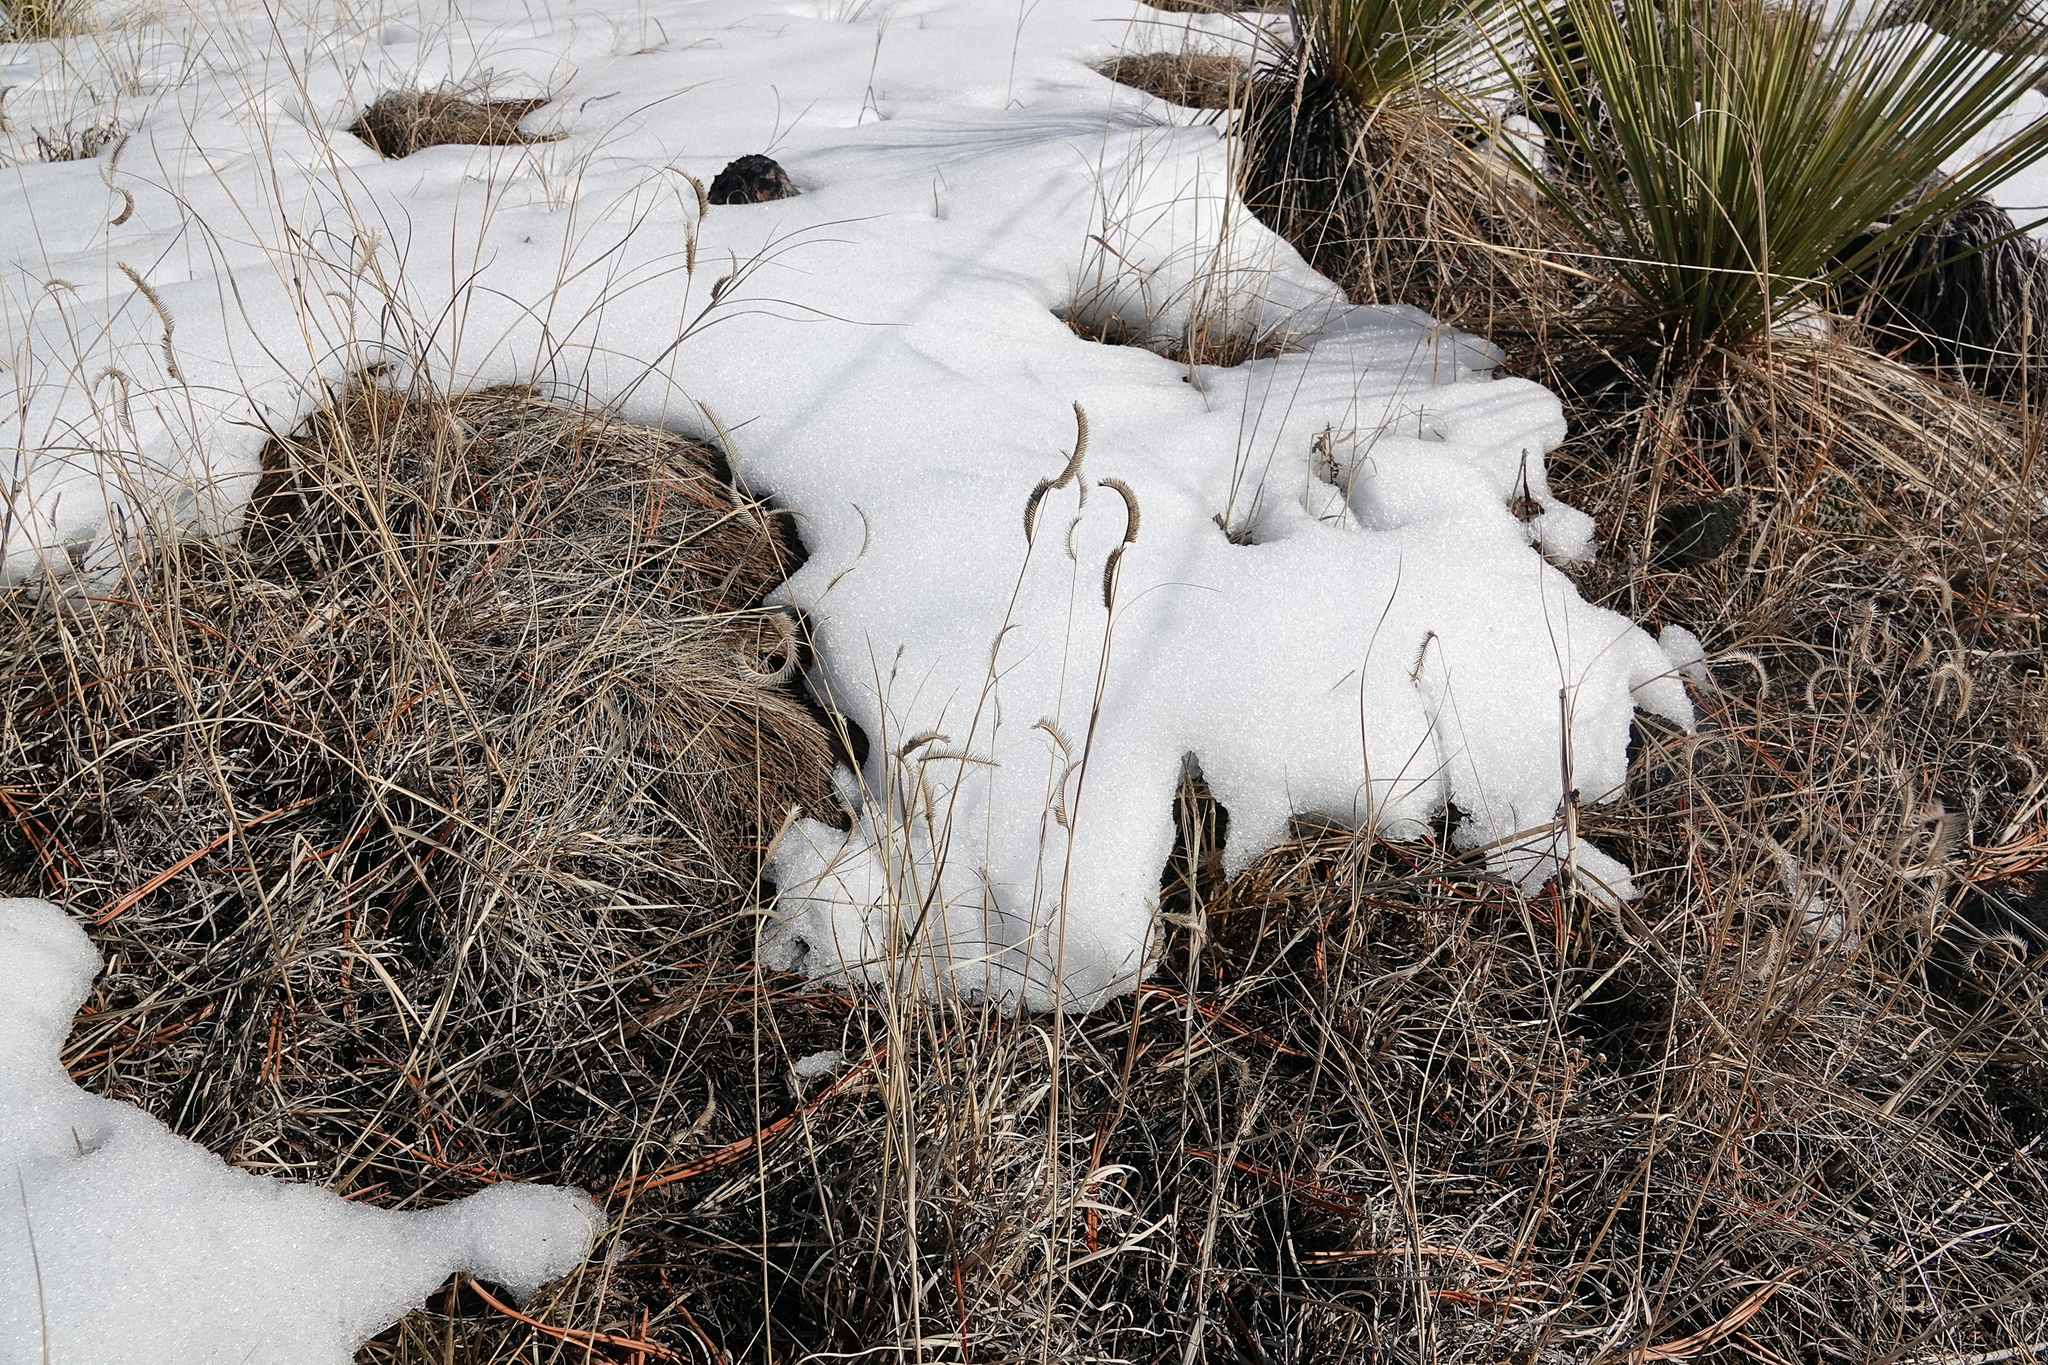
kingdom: Plantae
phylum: Tracheophyta
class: Liliopsida
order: Poales
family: Poaceae
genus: Bouteloua
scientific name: Bouteloua gracilis
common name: Blue grama
